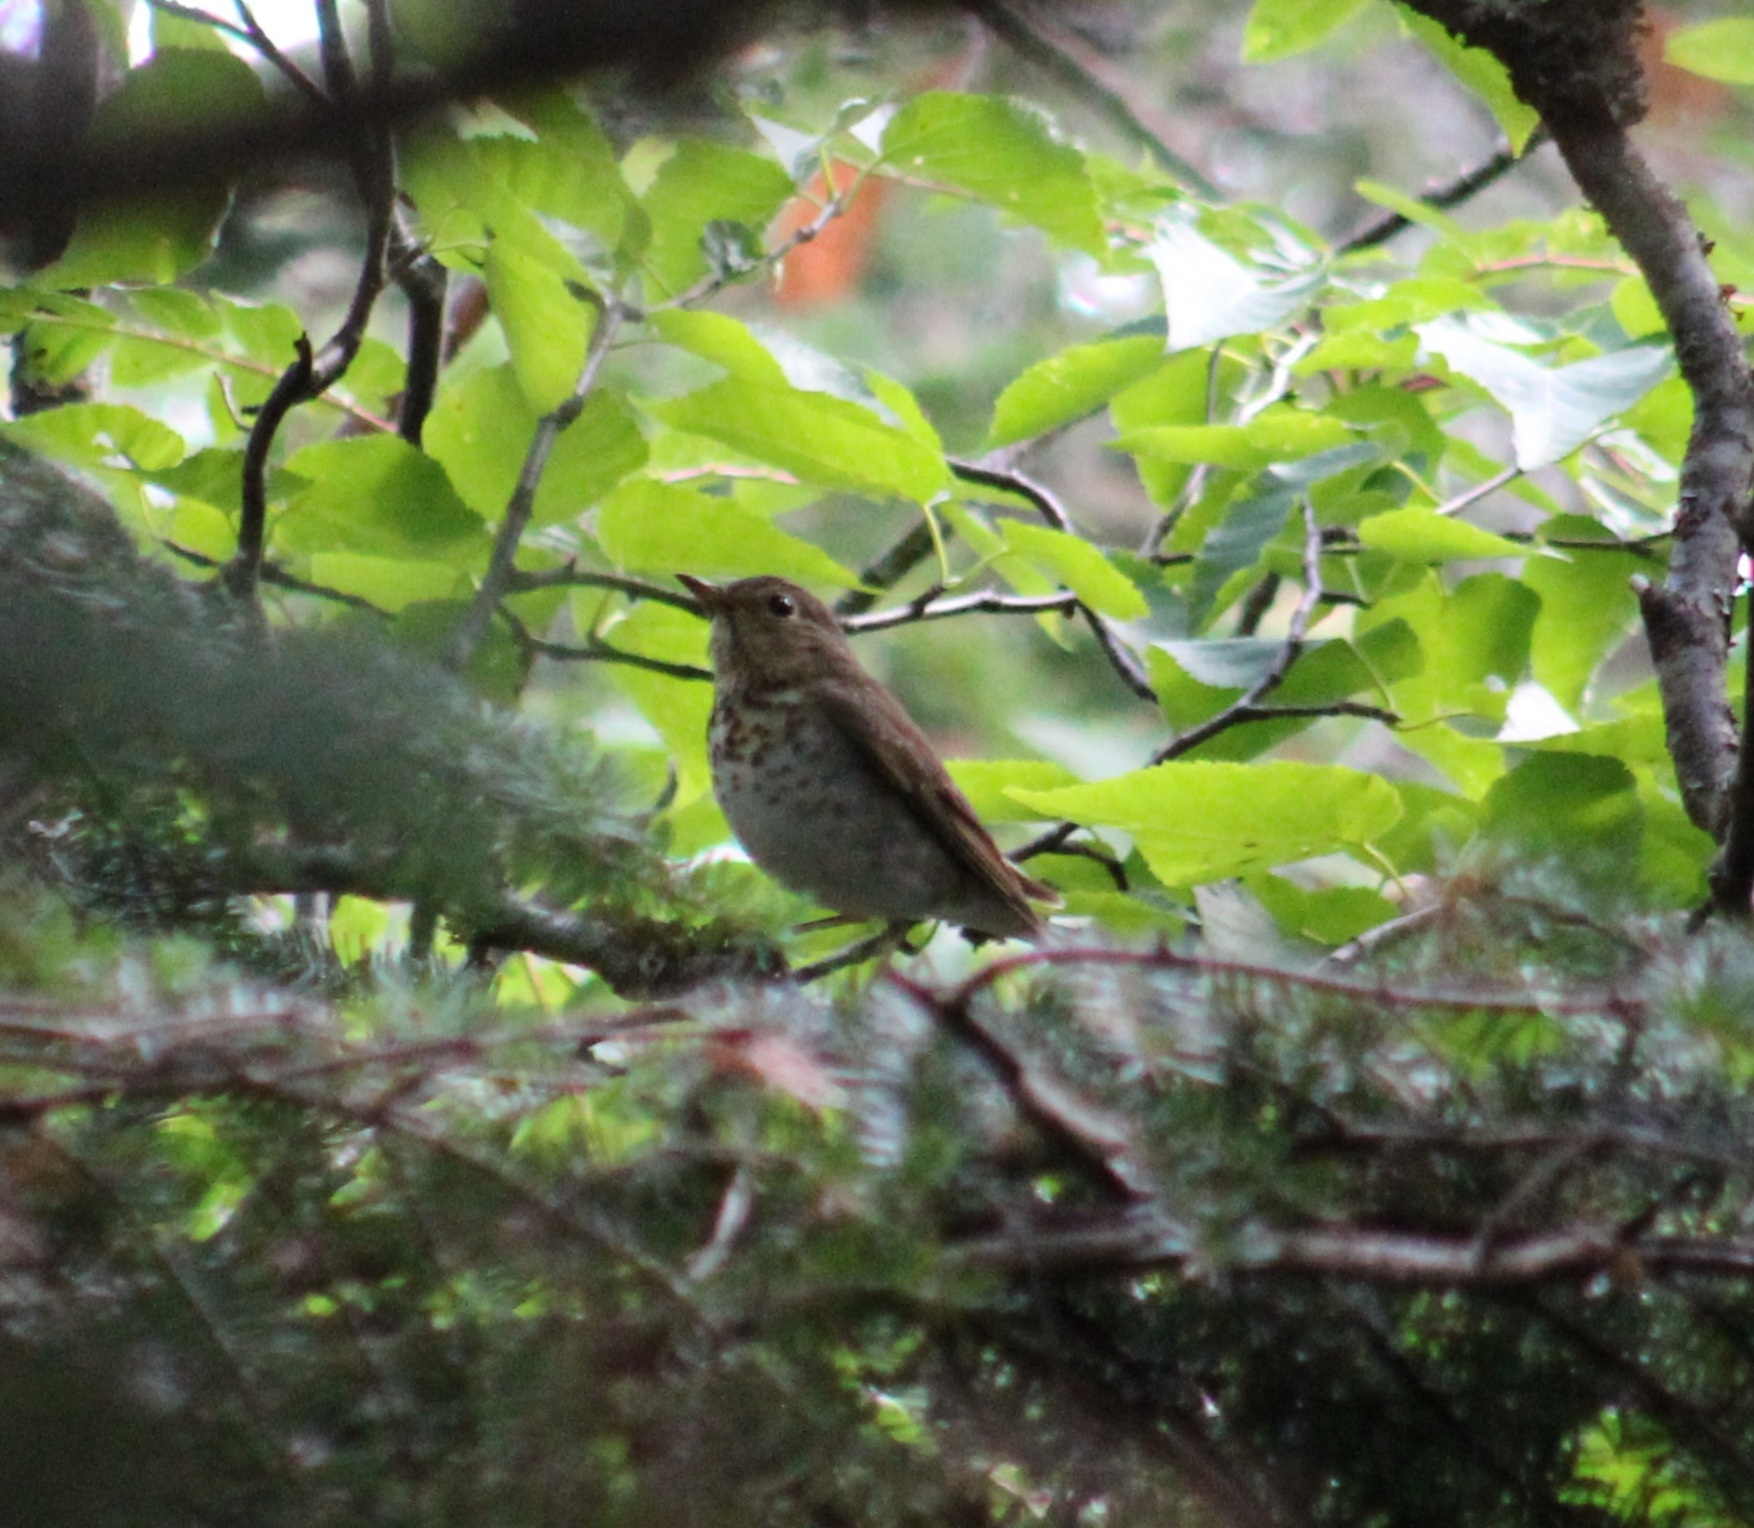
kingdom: Animalia
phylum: Chordata
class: Aves
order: Passeriformes
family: Turdidae
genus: Catharus
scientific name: Catharus ustulatus
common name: Swainson's thrush
